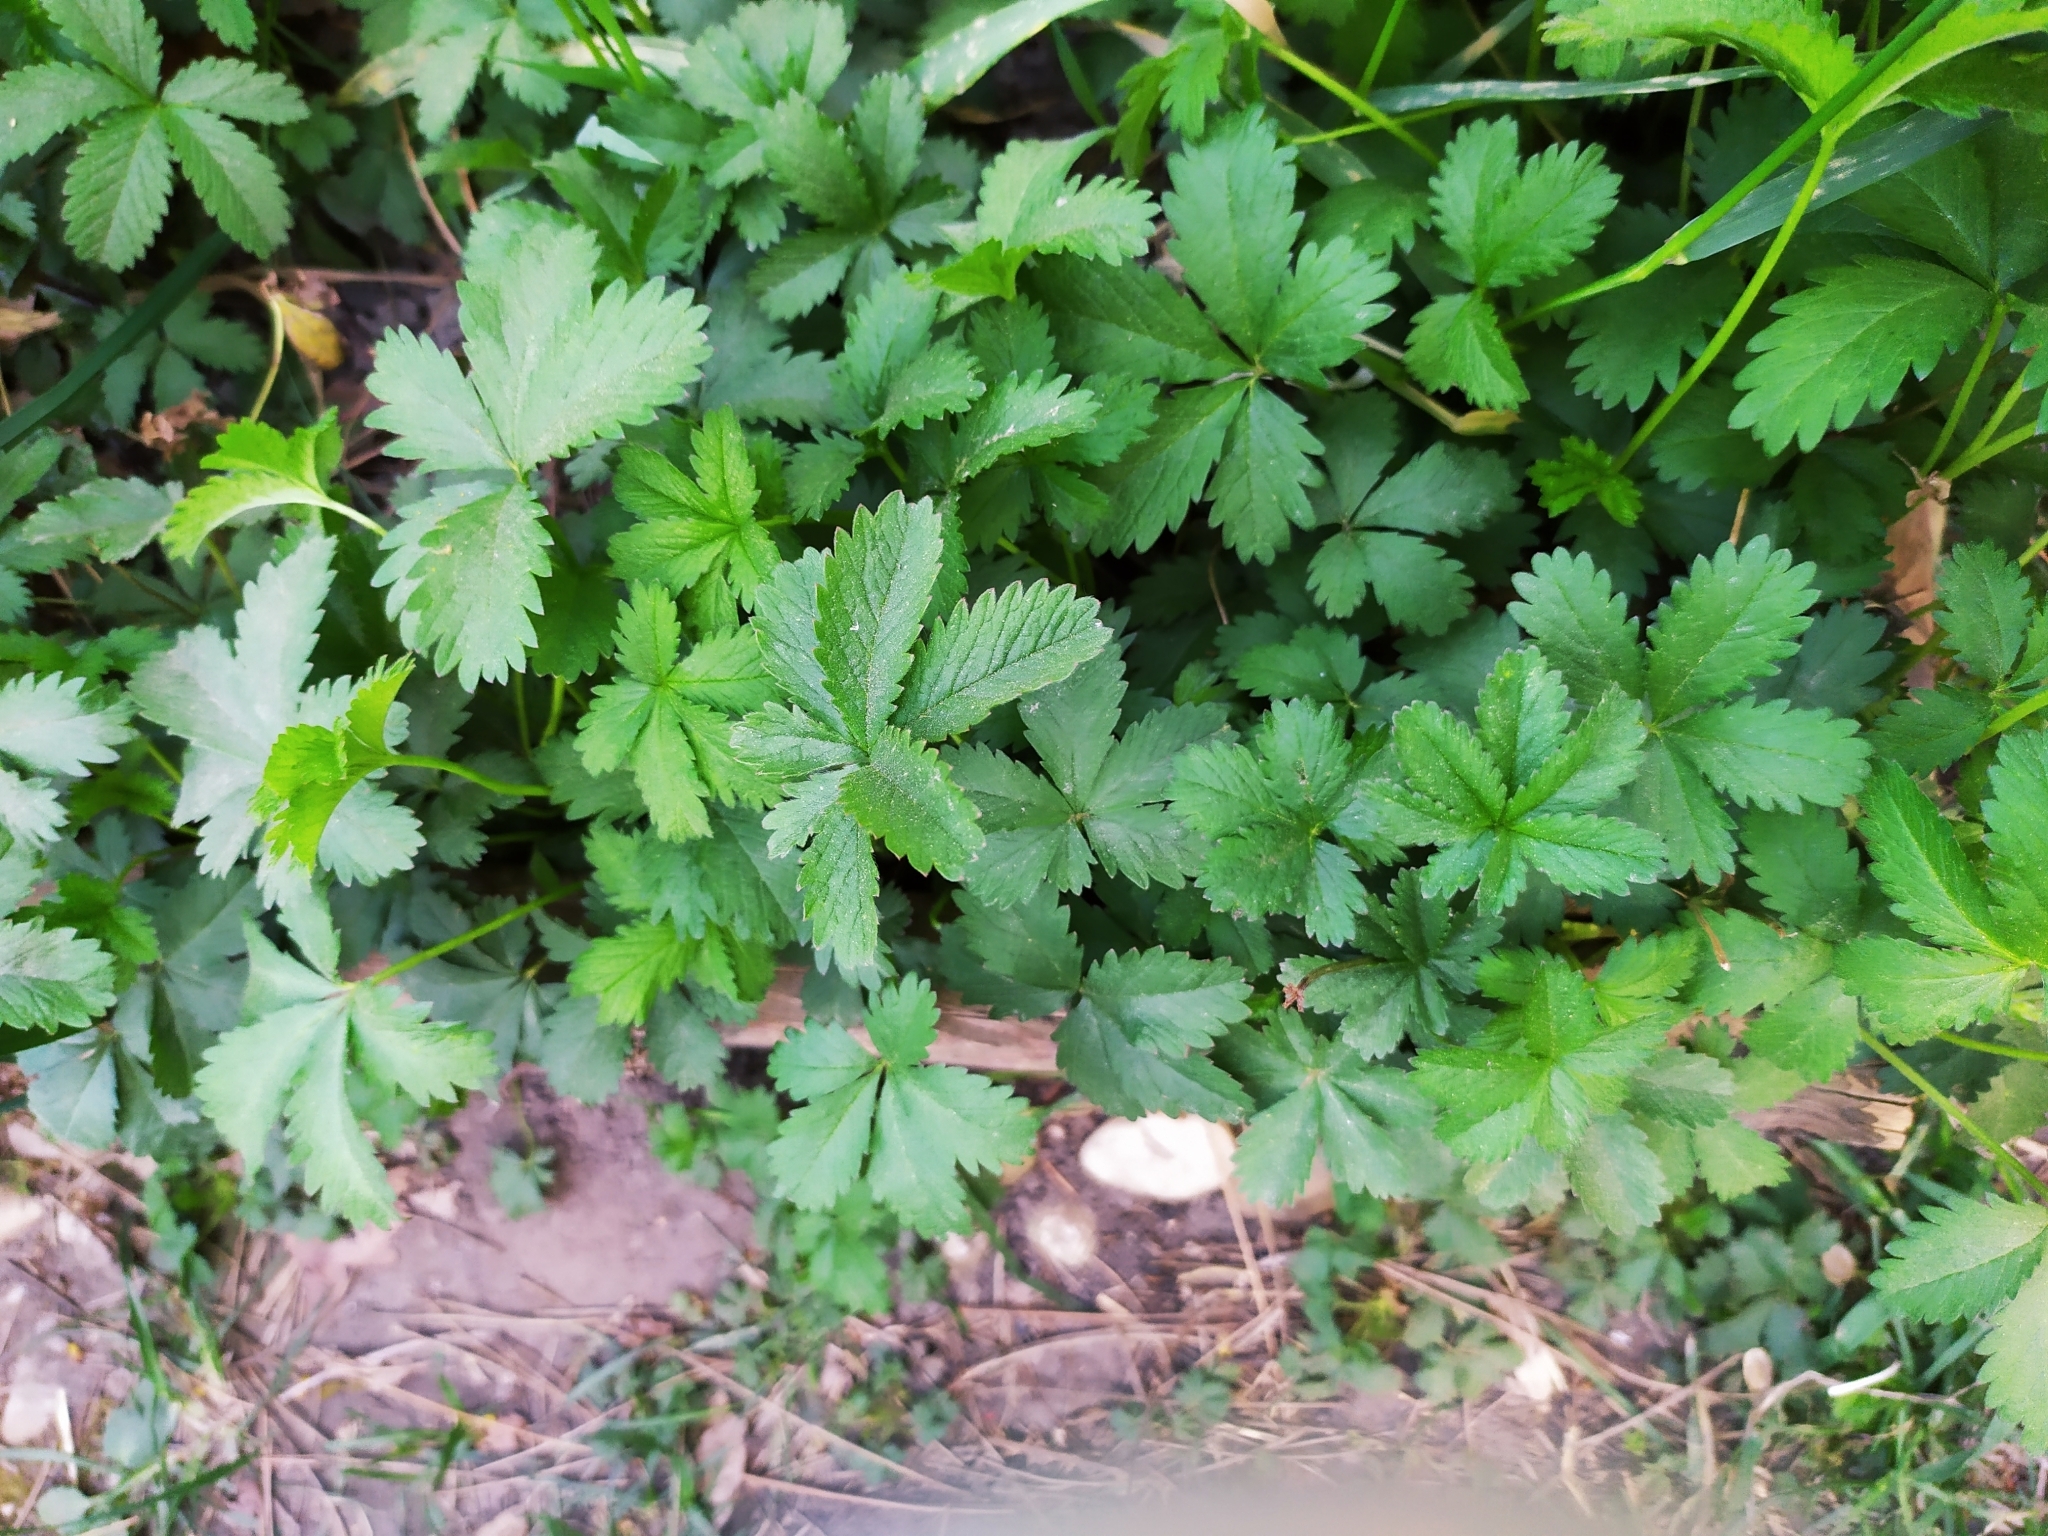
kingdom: Plantae
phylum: Tracheophyta
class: Magnoliopsida
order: Rosales
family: Rosaceae
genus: Potentilla
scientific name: Potentilla reptans
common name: Creeping cinquefoil
